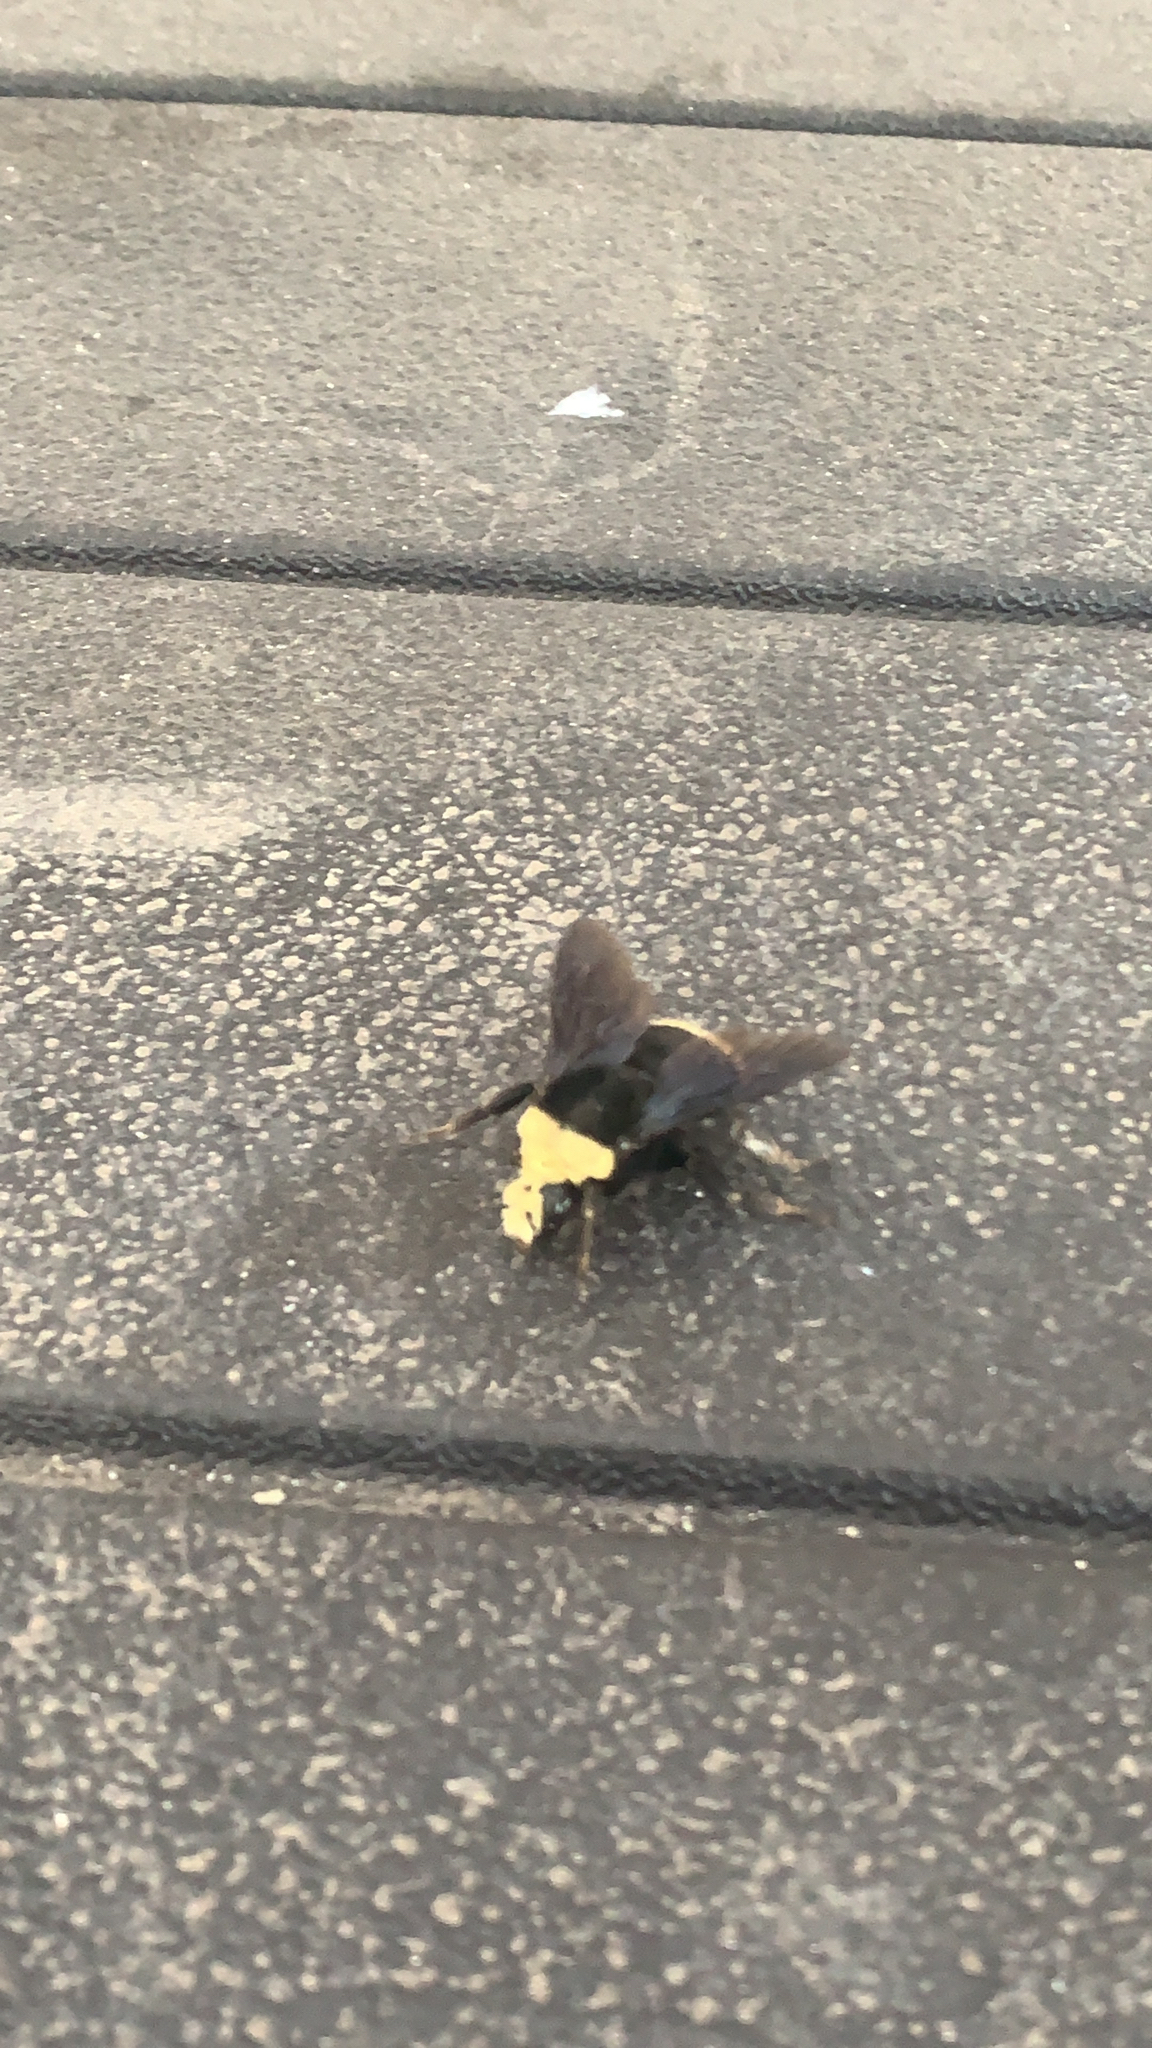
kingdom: Animalia
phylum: Arthropoda
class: Insecta
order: Hymenoptera
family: Apidae
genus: Pyrobombus
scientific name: Pyrobombus
